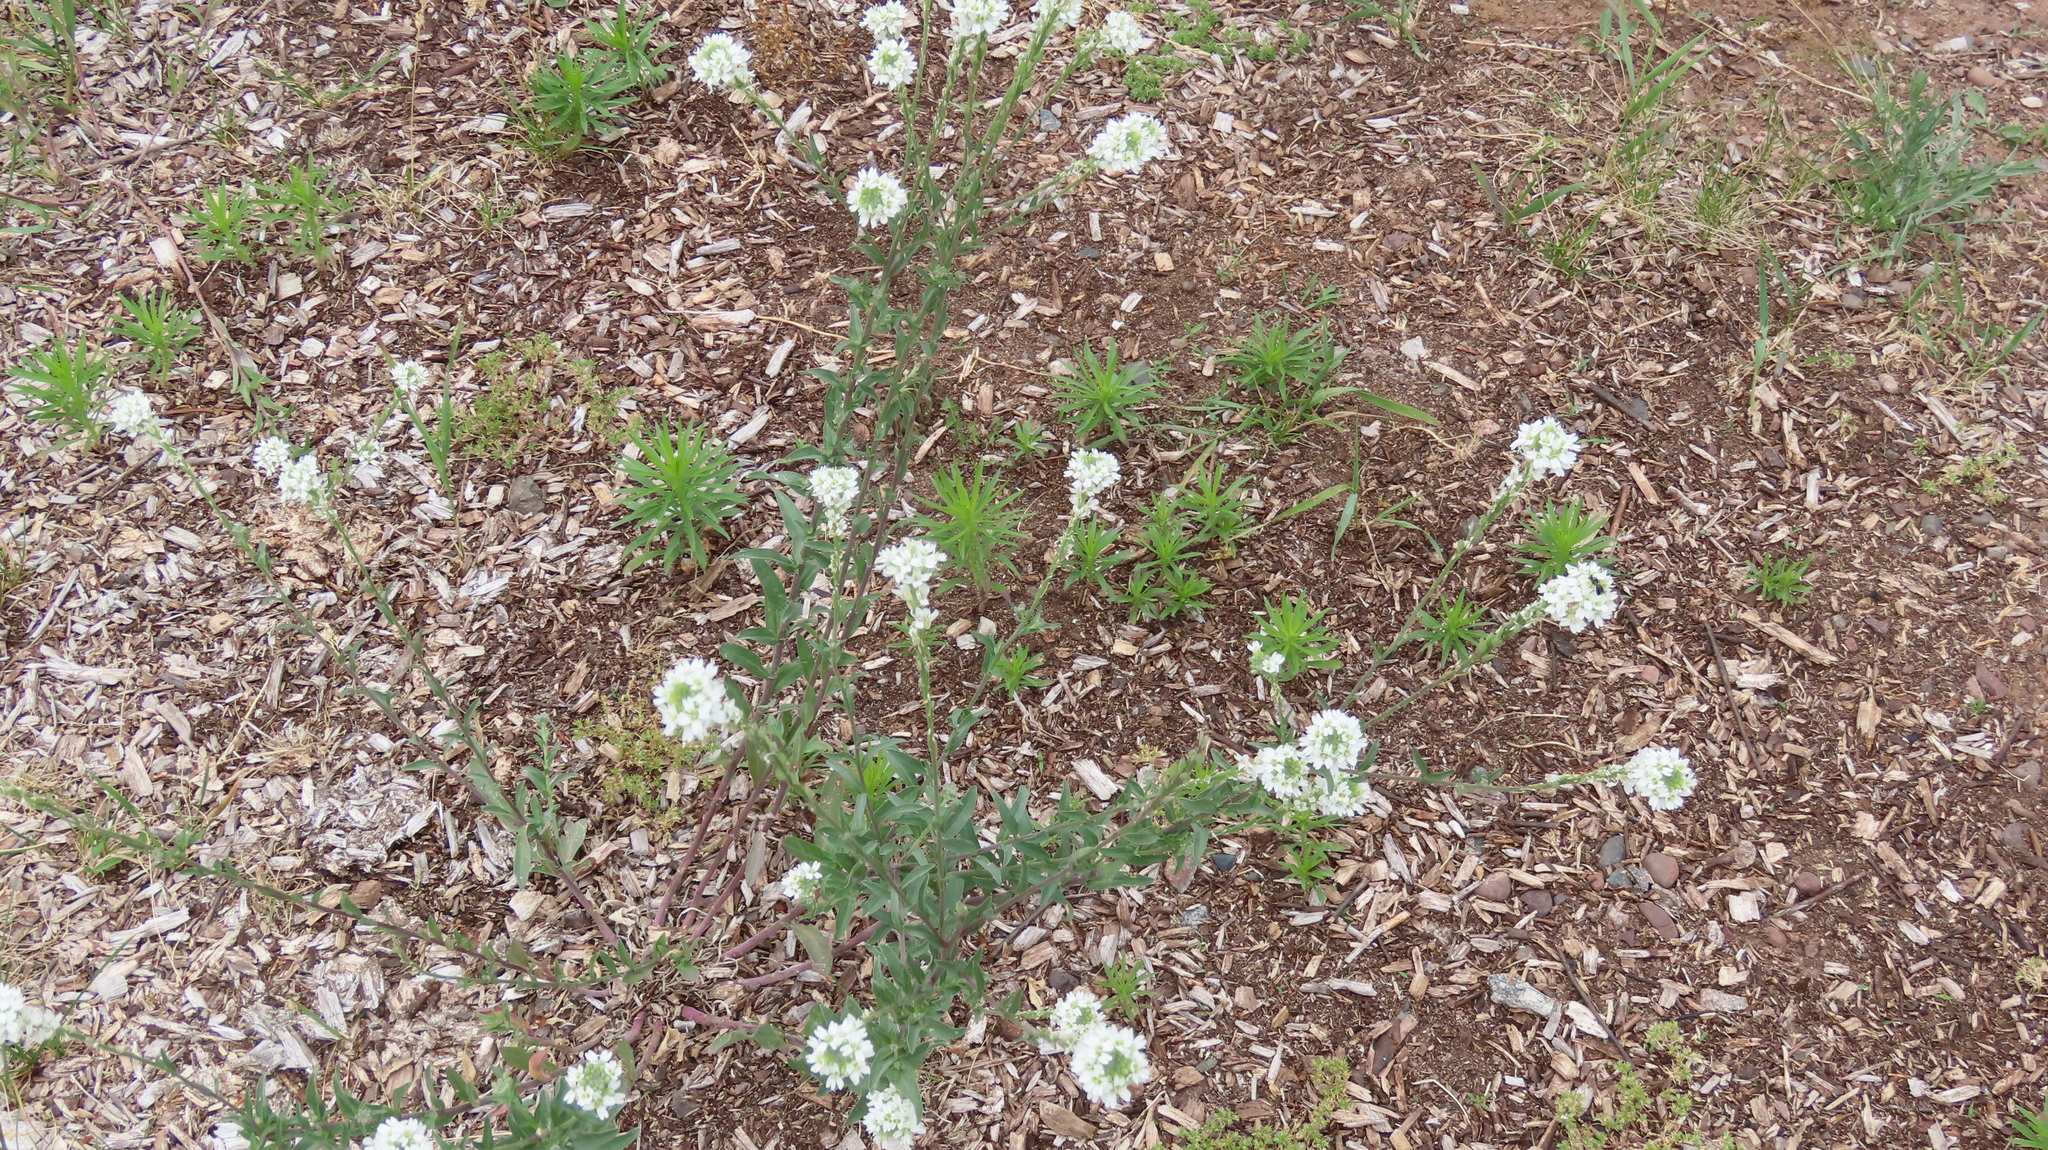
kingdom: Plantae
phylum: Tracheophyta
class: Magnoliopsida
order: Brassicales
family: Brassicaceae
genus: Berteroa
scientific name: Berteroa incana
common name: Hoary alison
